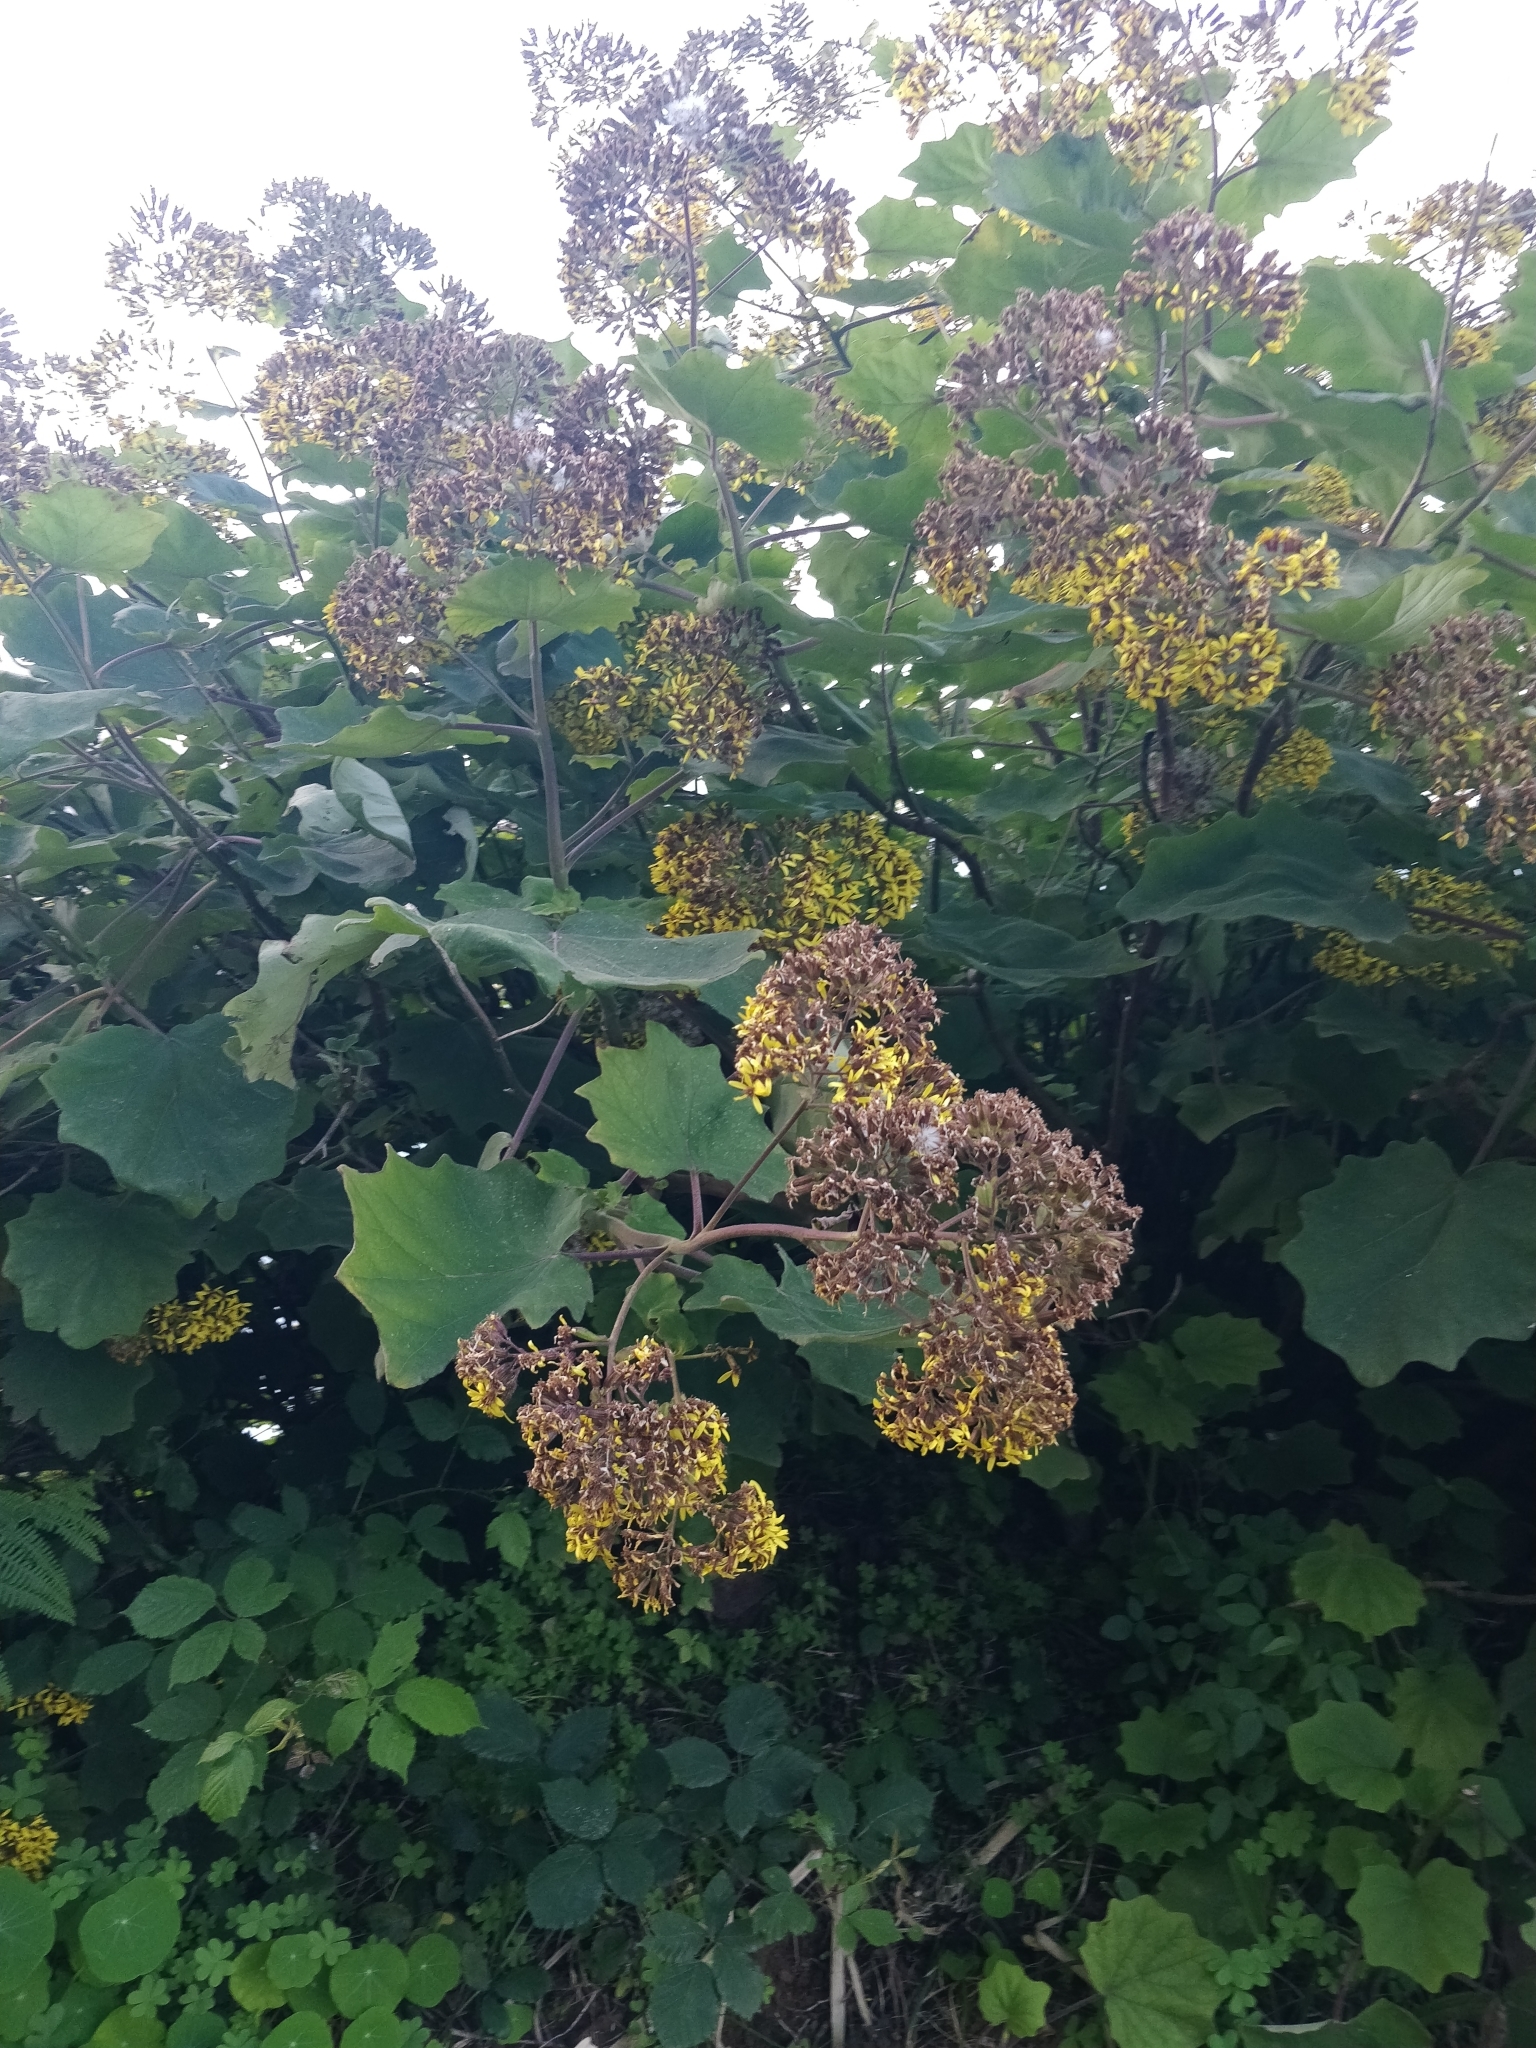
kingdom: Plantae
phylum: Tracheophyta
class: Magnoliopsida
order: Asterales
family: Asteraceae
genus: Roldana
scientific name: Roldana petasitis
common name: California-geranium
